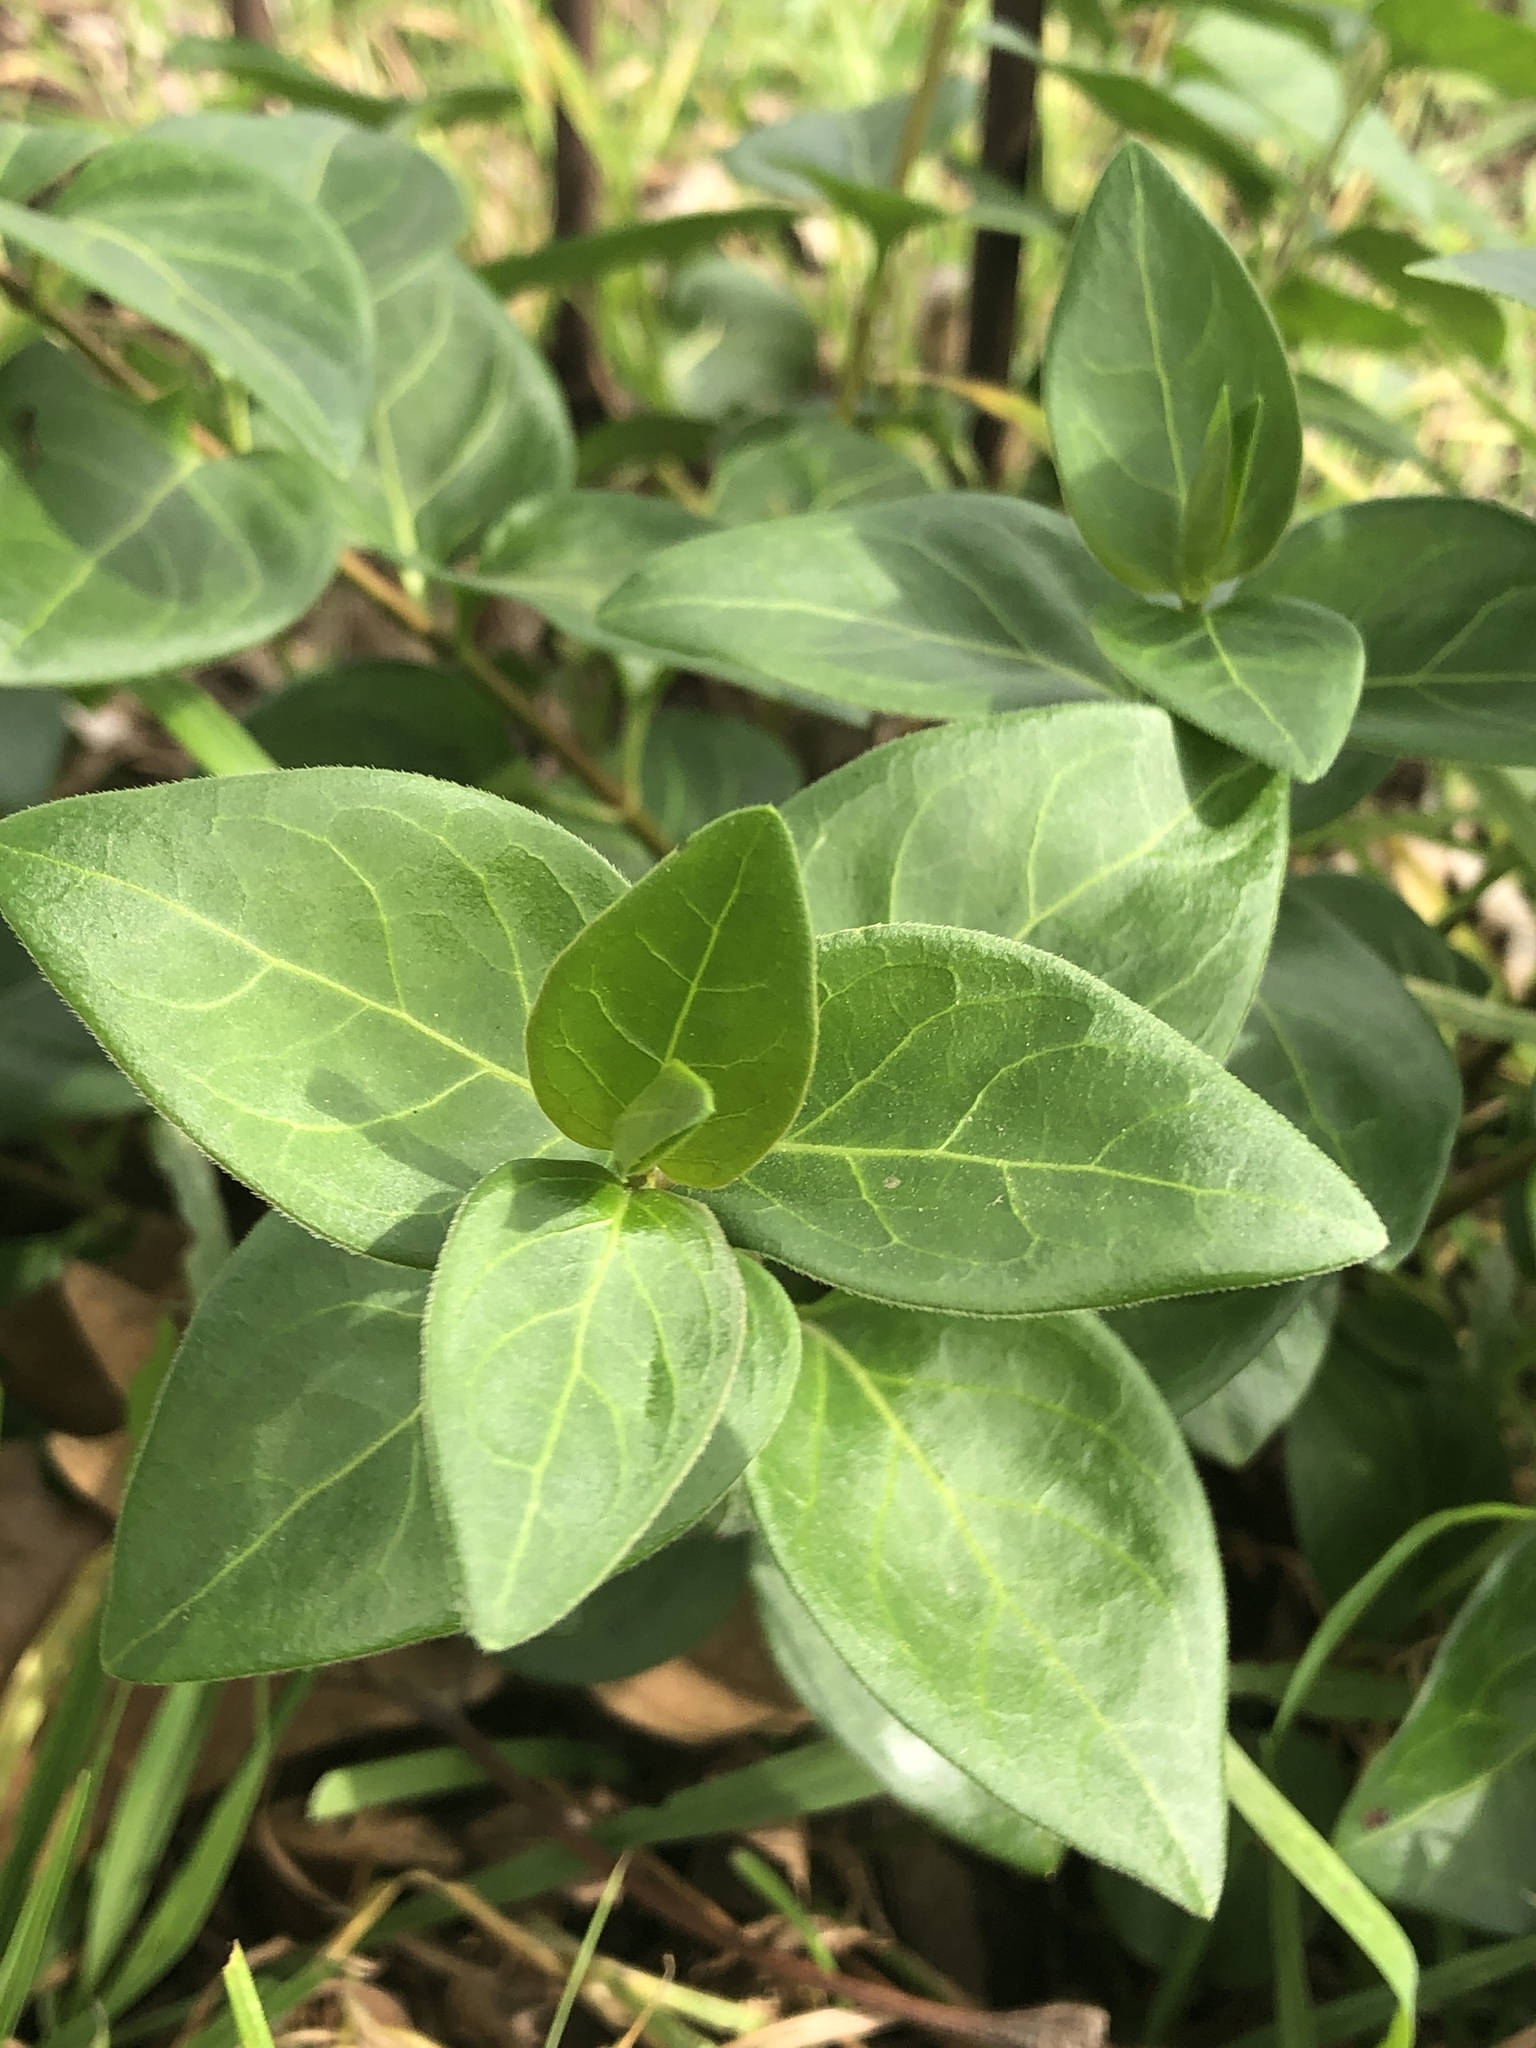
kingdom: Plantae
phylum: Tracheophyta
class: Magnoliopsida
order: Gentianales
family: Apocynaceae
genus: Vinca
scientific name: Vinca major
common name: Greater periwinkle
